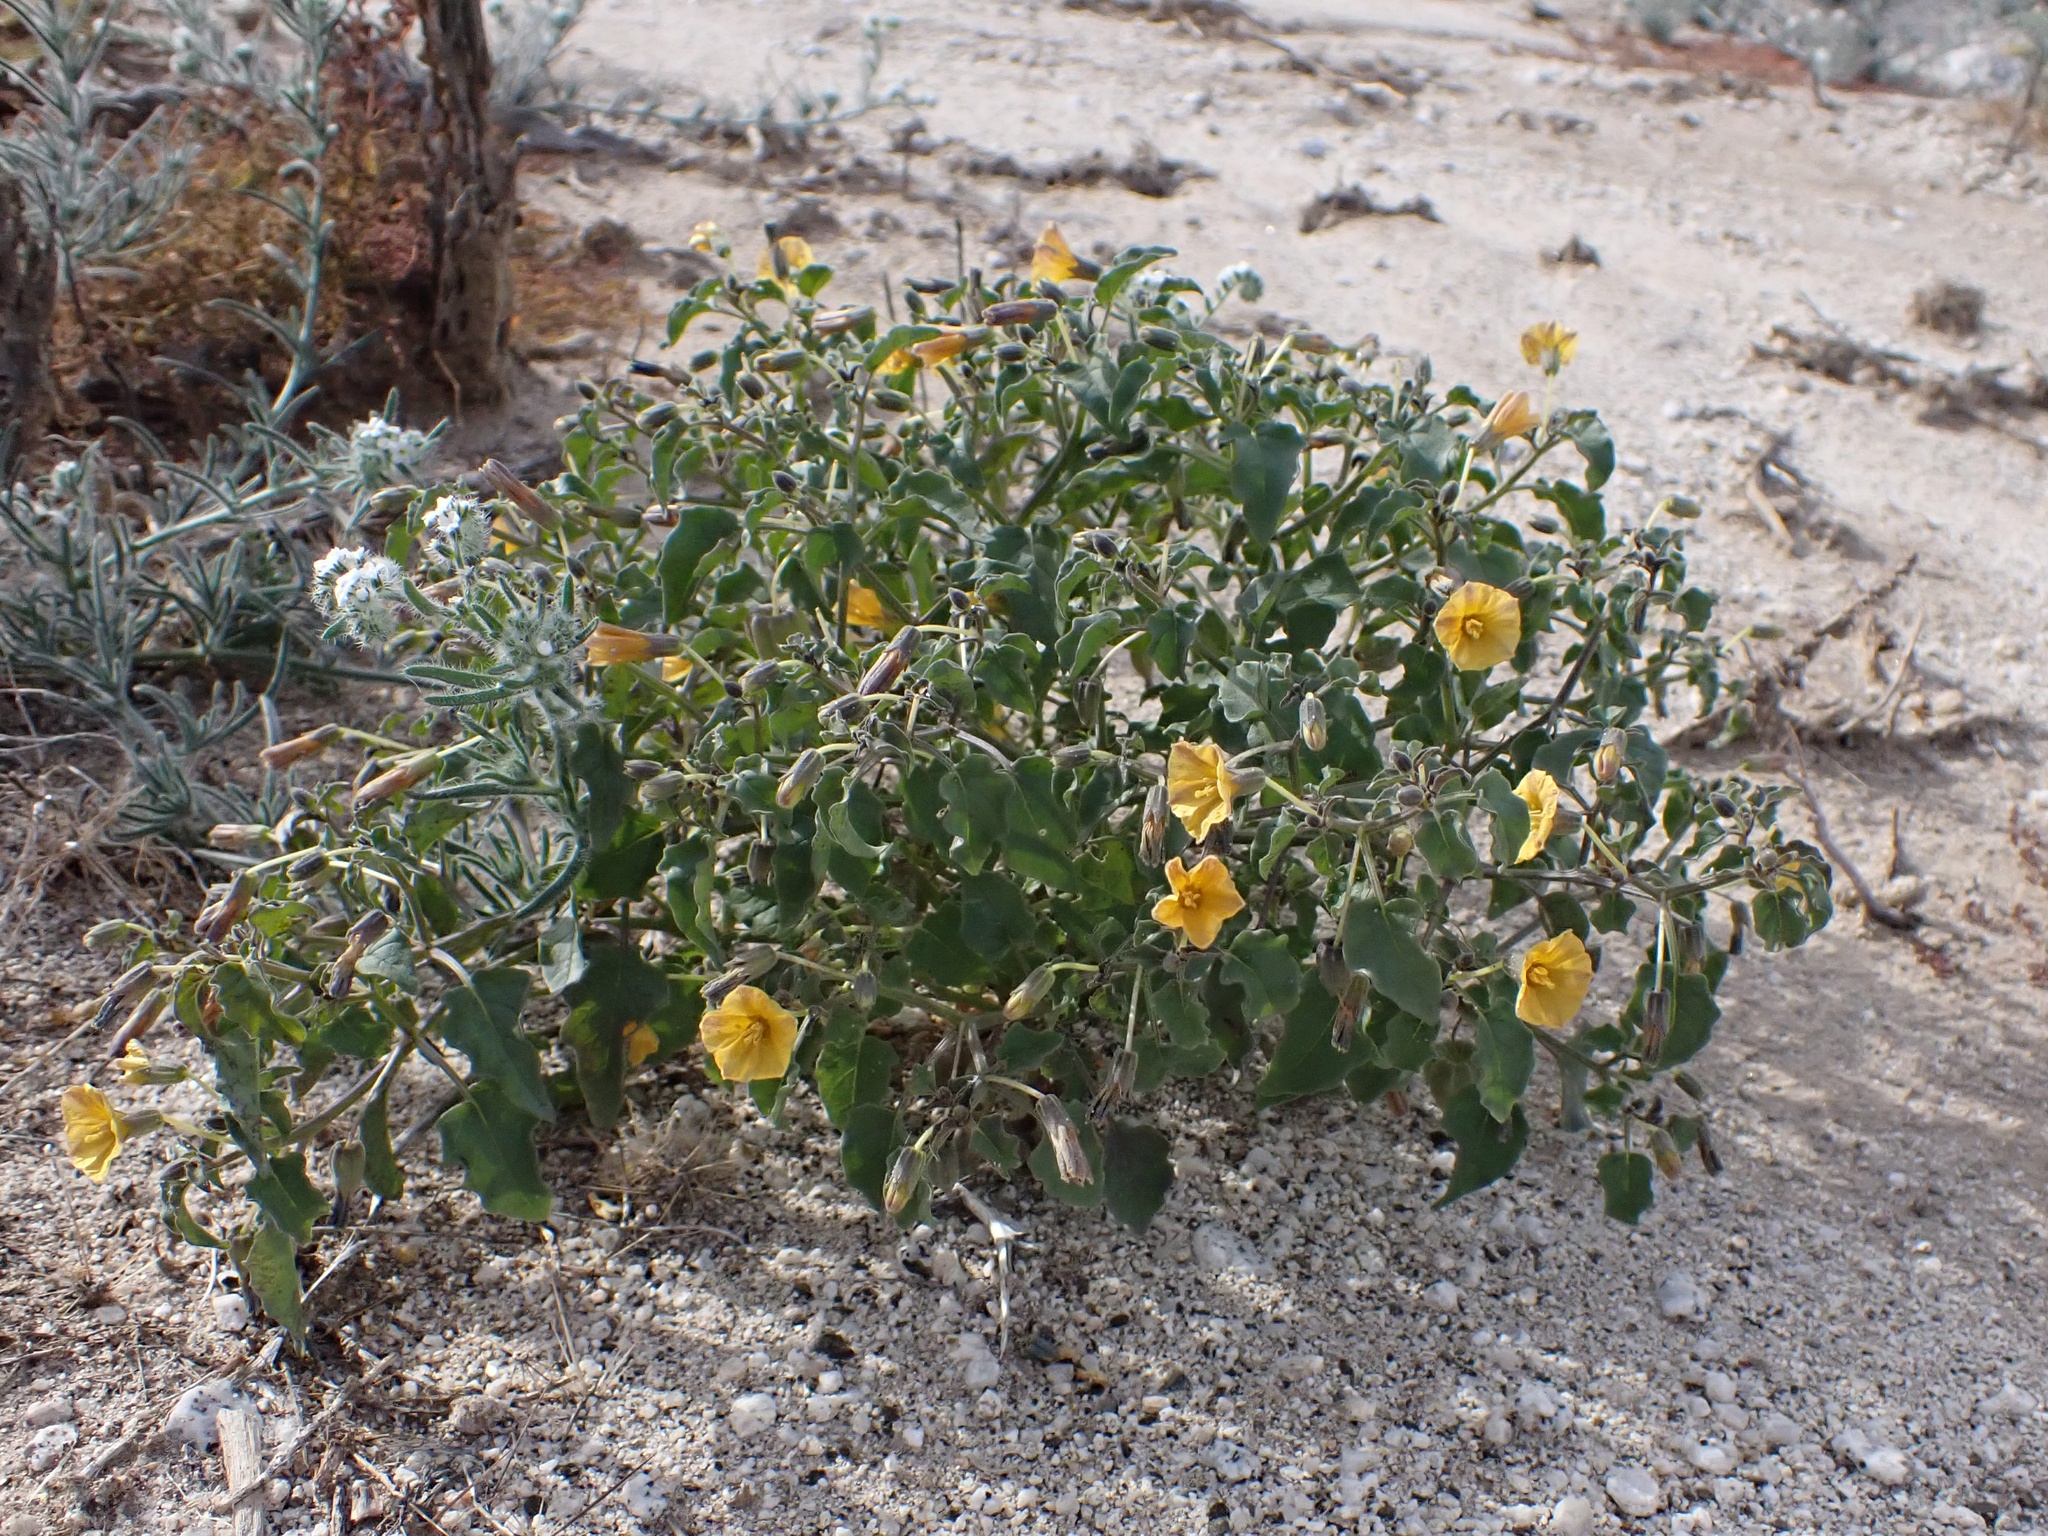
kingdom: Plantae
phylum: Tracheophyta
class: Magnoliopsida
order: Solanales
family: Solanaceae
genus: Physalis
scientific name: Physalis crassifolia
